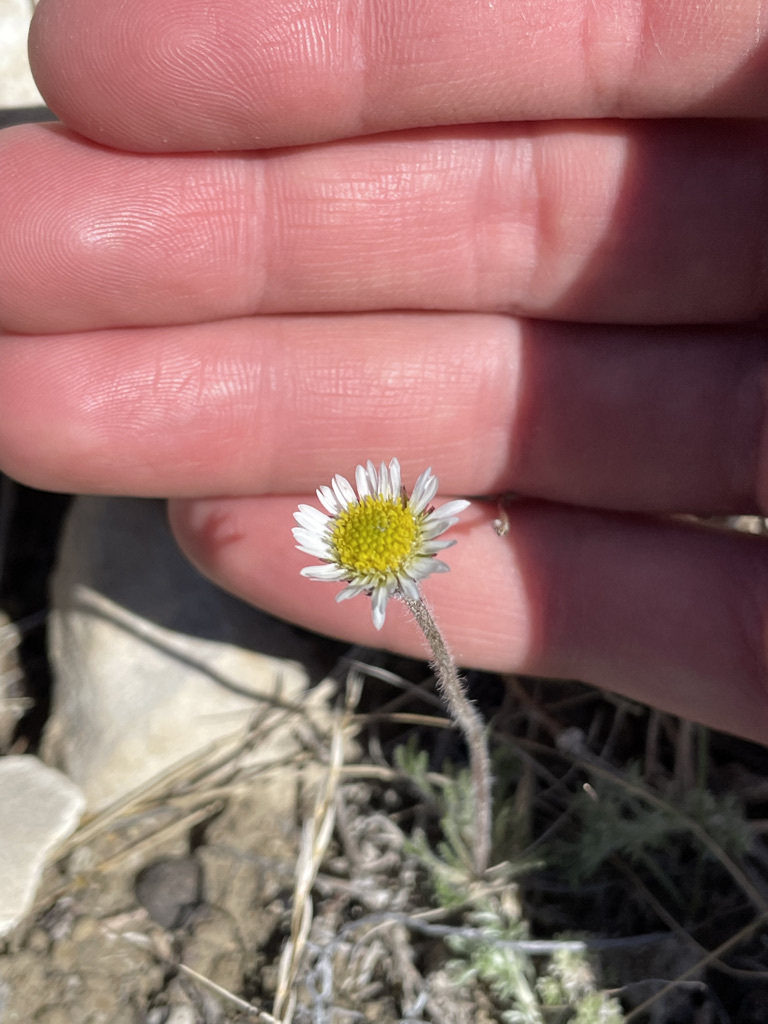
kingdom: Plantae
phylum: Tracheophyta
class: Magnoliopsida
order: Asterales
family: Asteraceae
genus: Erigeron
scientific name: Erigeron compositus
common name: Dwarf mountain fleabane
